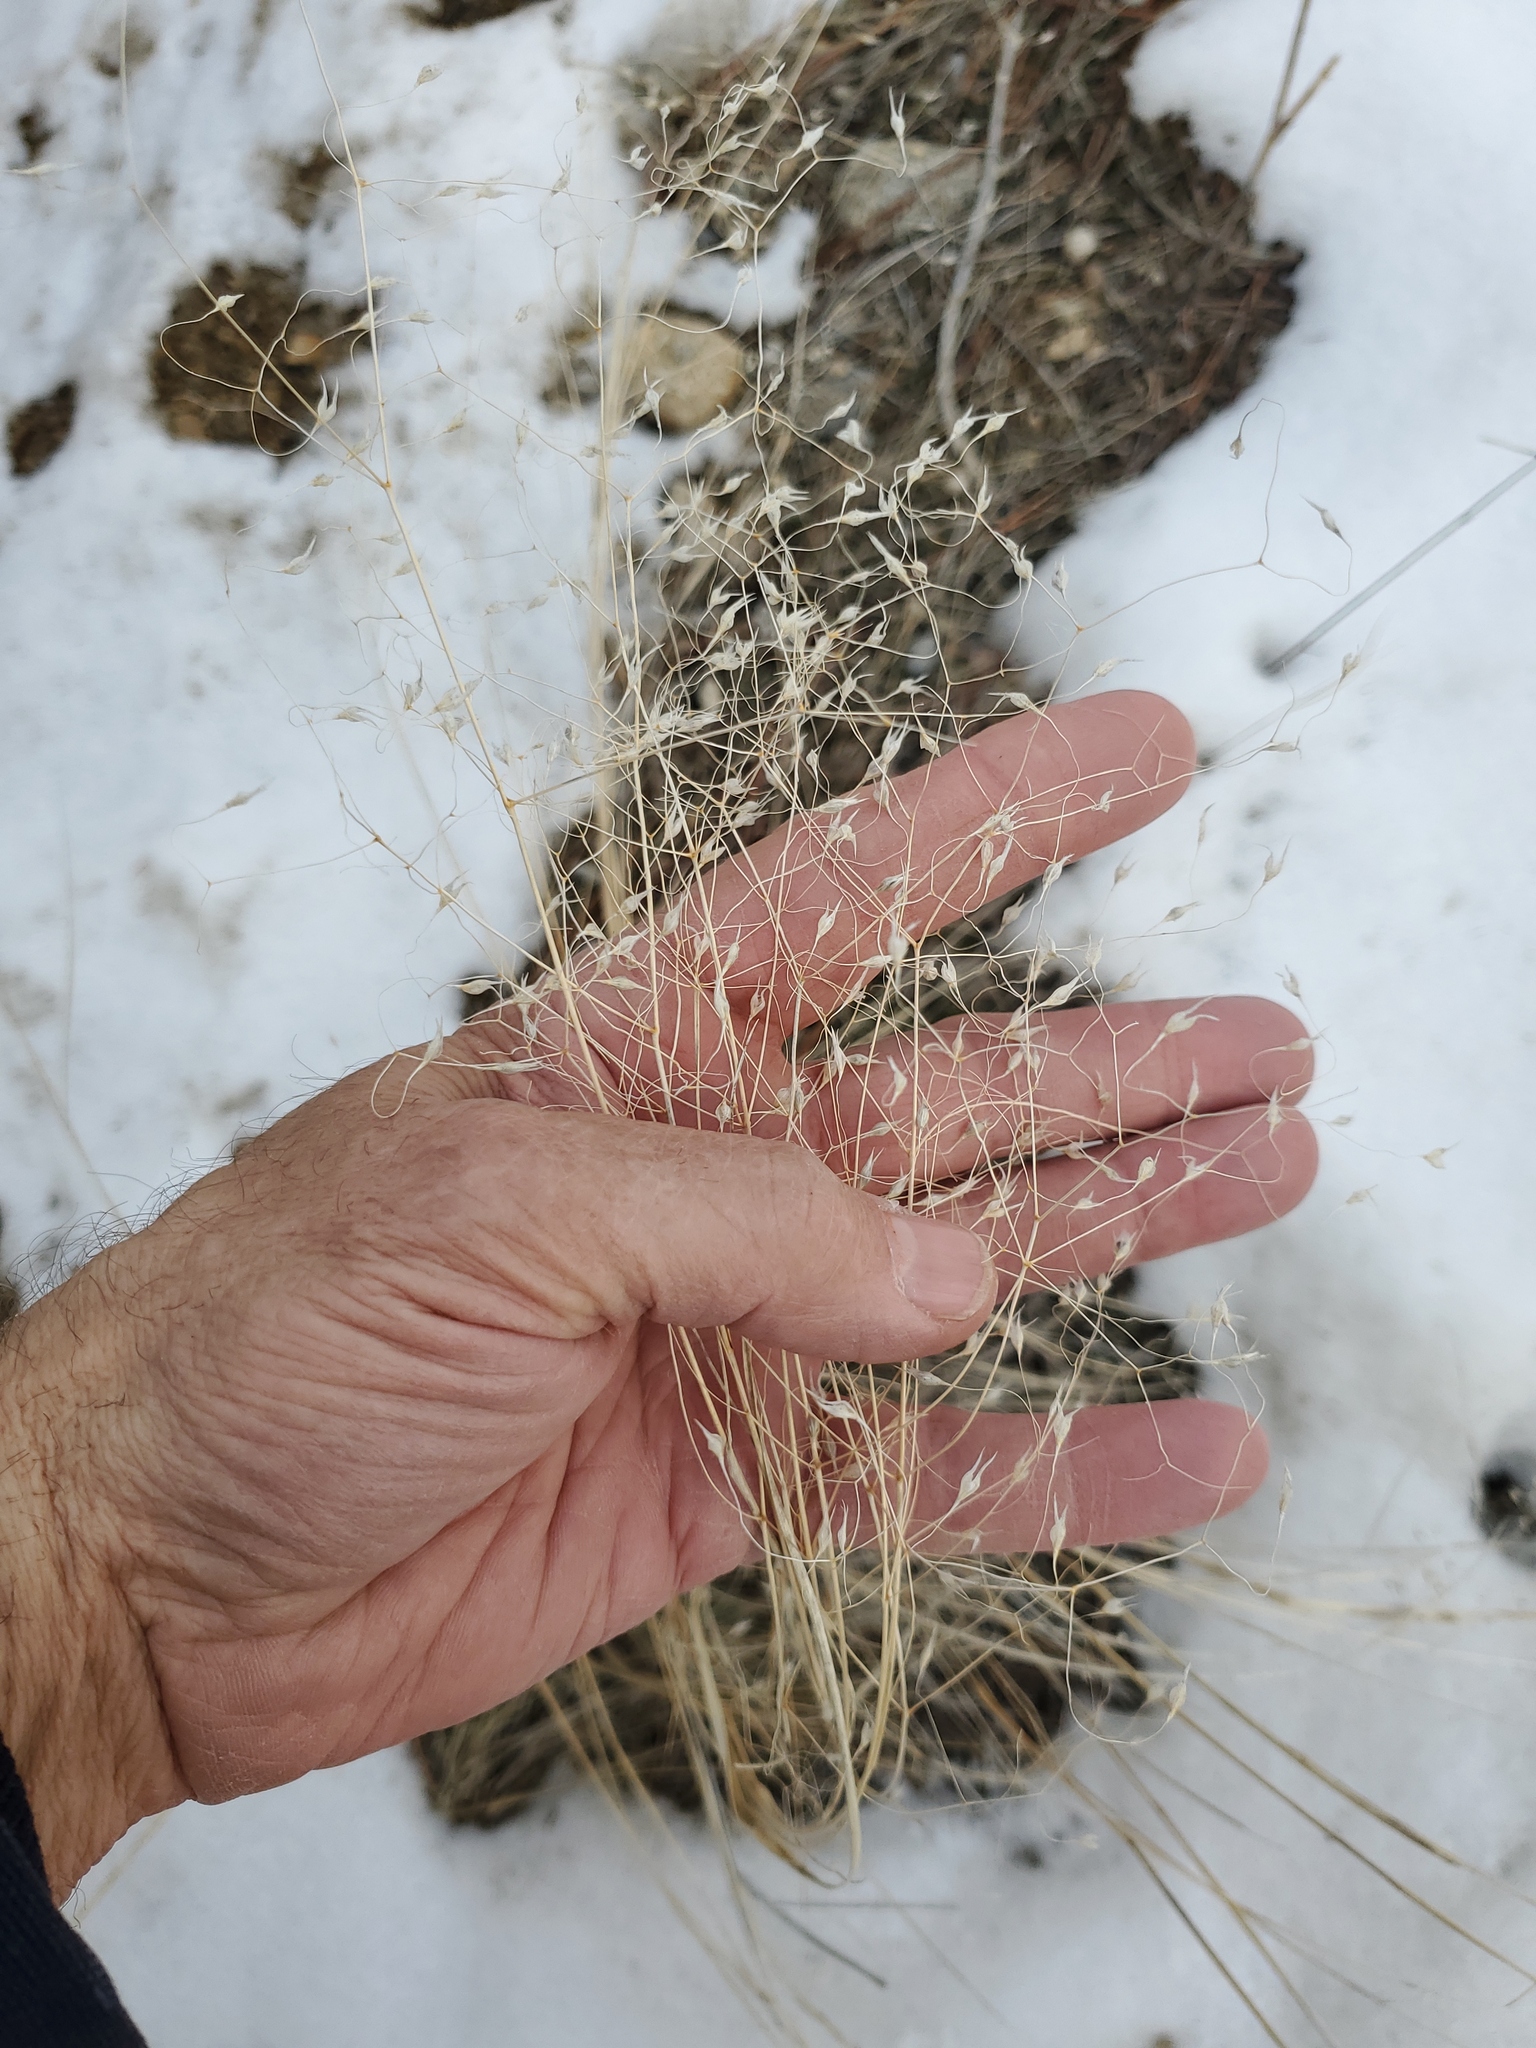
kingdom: Plantae
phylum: Tracheophyta
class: Liliopsida
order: Poales
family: Poaceae
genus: Eriocoma
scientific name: Eriocoma hymenoides
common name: Indian mountain ricegrass
